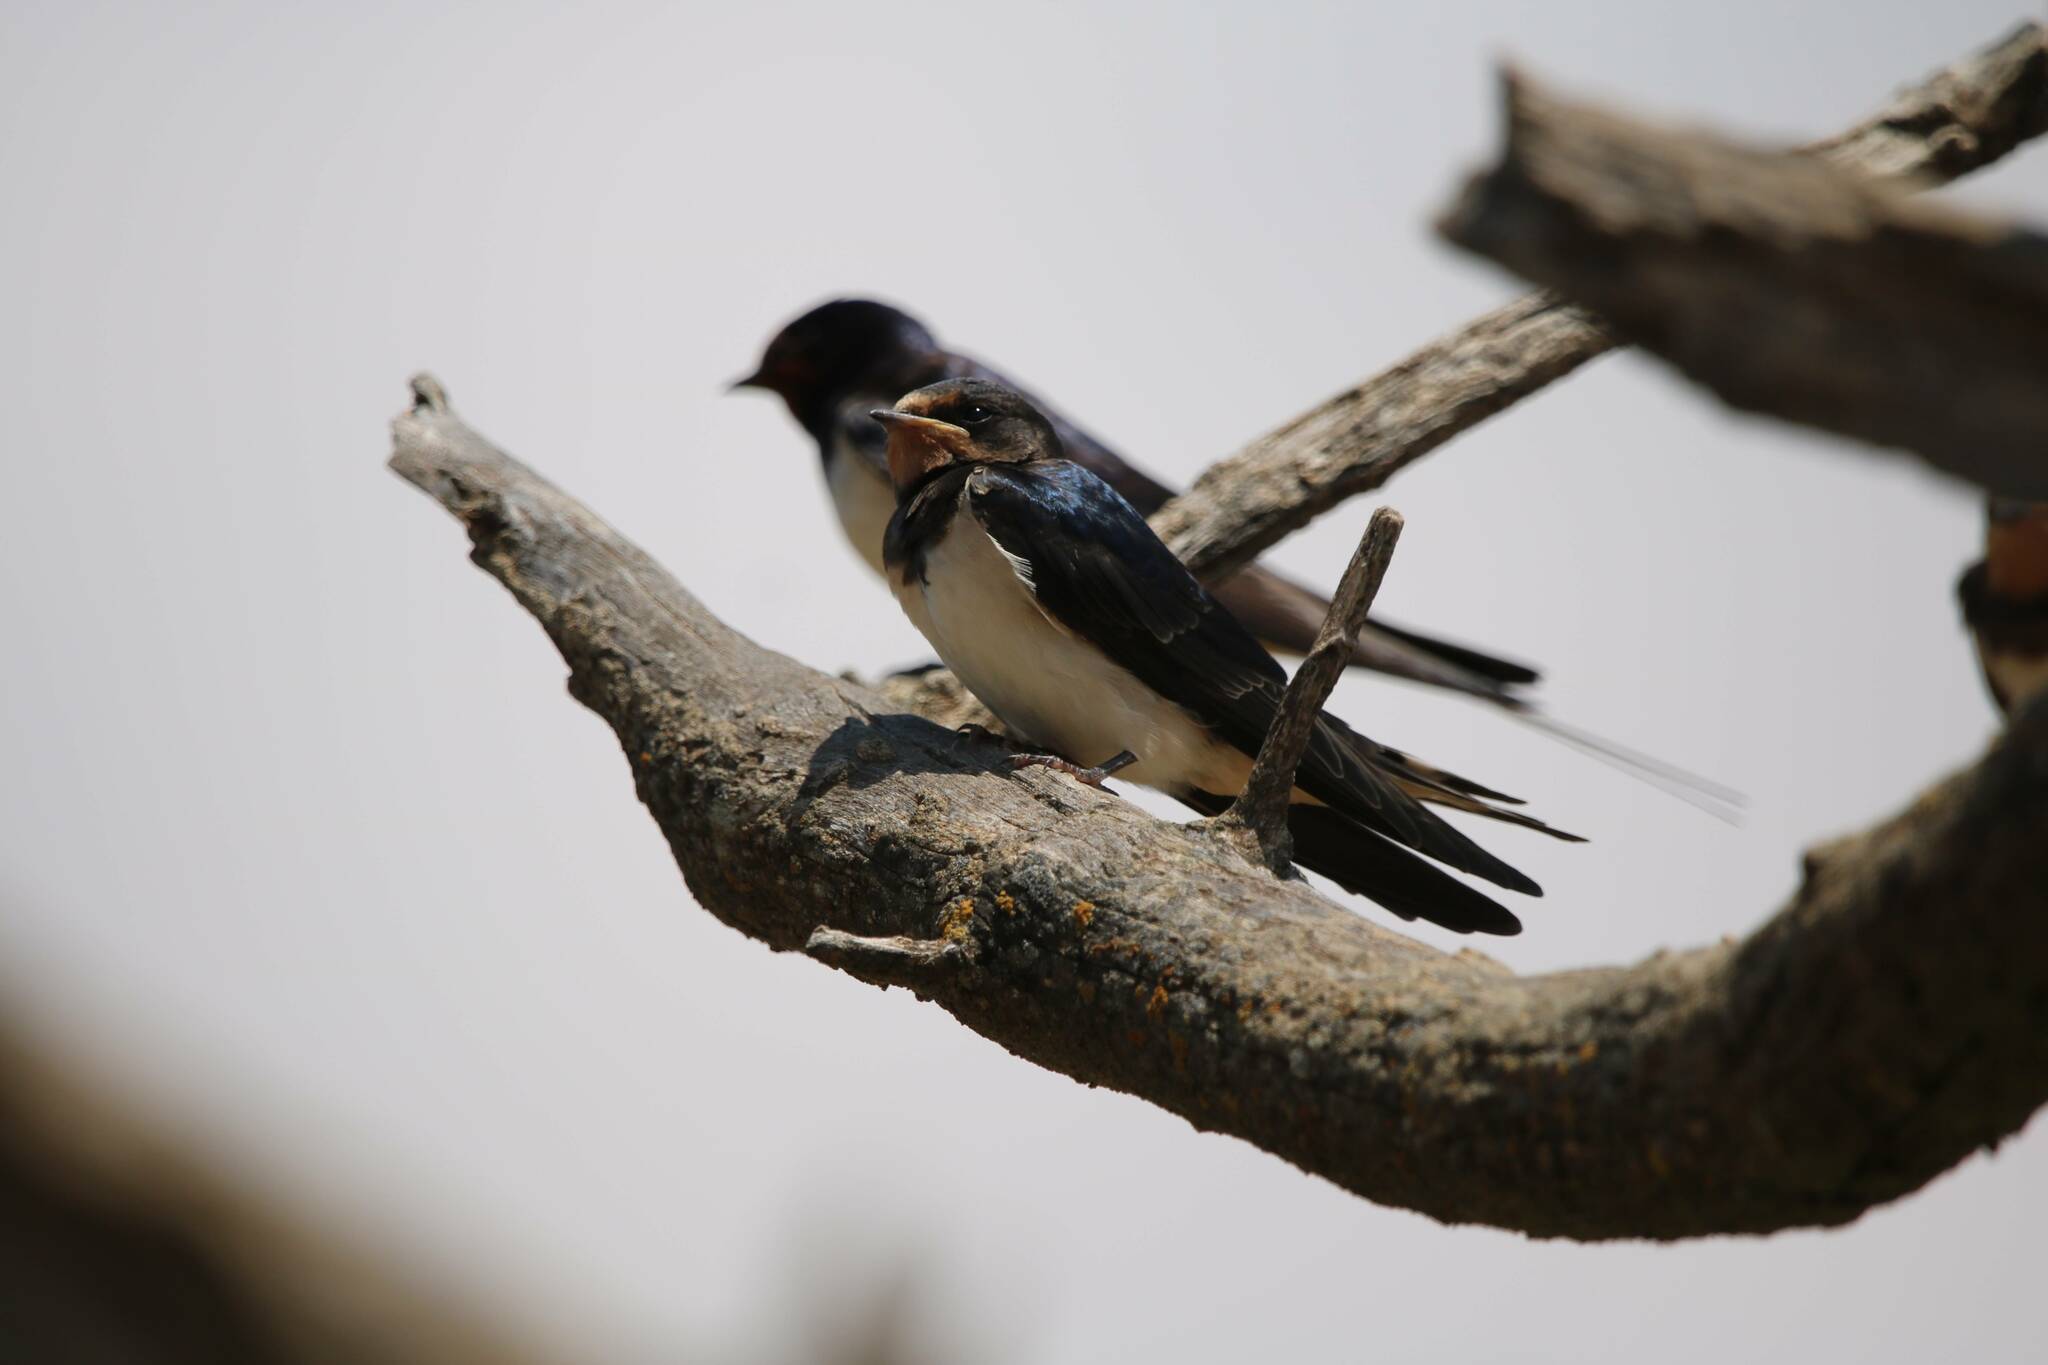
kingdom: Animalia
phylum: Chordata
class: Aves
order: Passeriformes
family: Hirundinidae
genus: Hirundo
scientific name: Hirundo rustica
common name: Barn swallow
